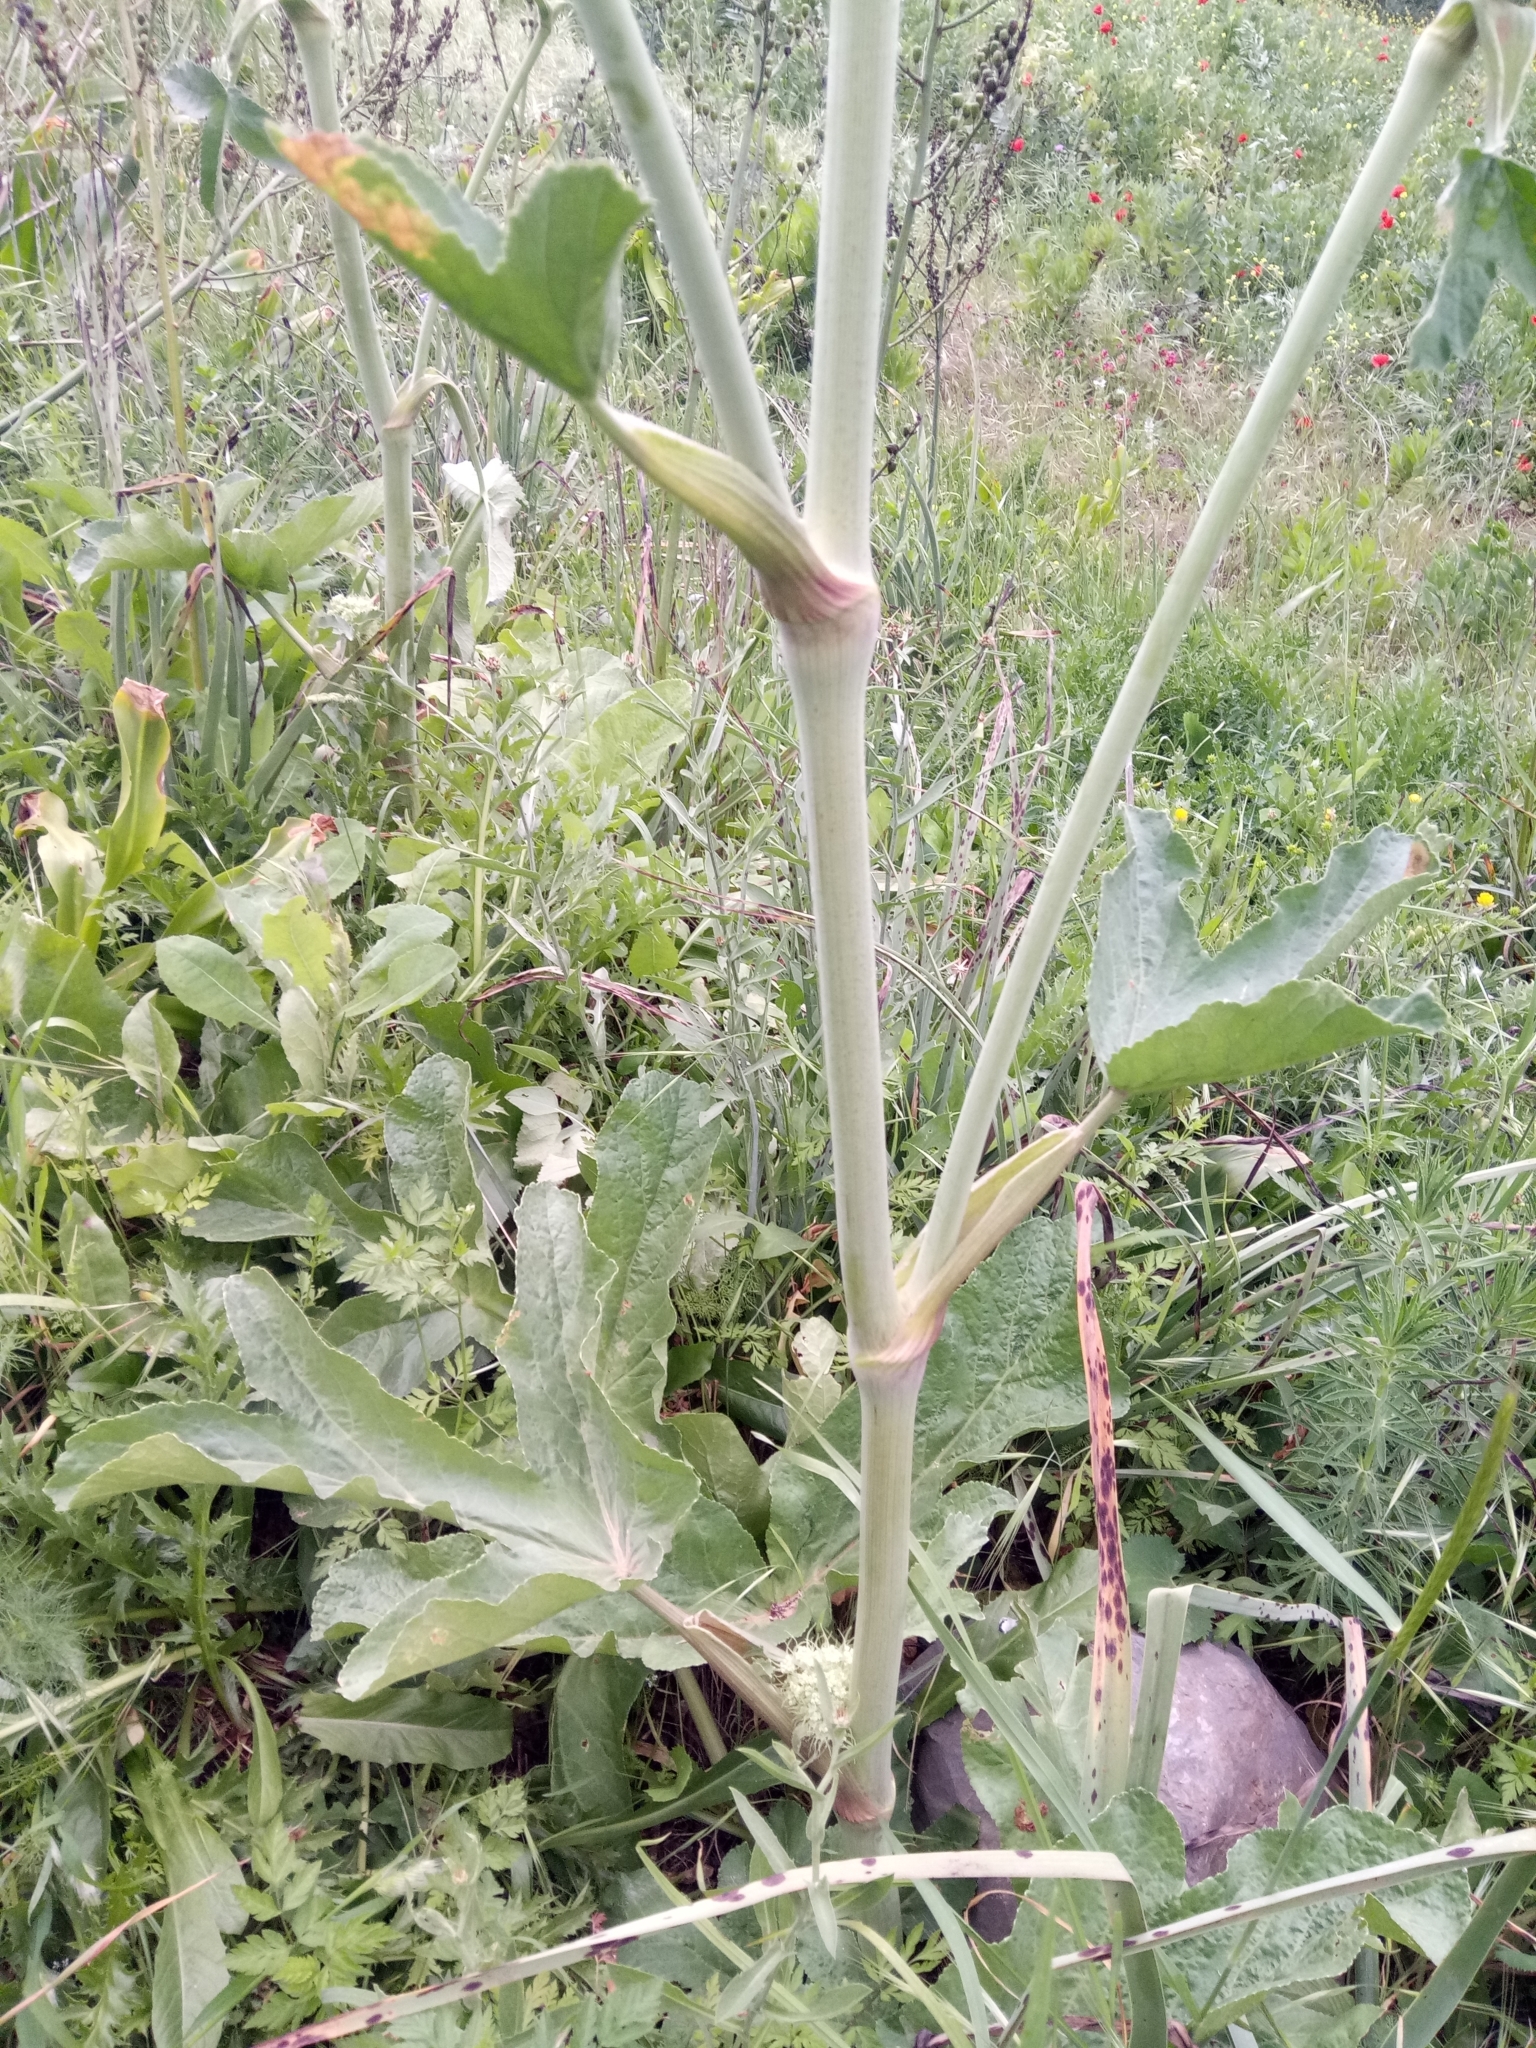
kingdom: Plantae
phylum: Tracheophyta
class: Magnoliopsida
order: Apiales
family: Apiaceae
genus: Magydaris
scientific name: Magydaris pastinacea
